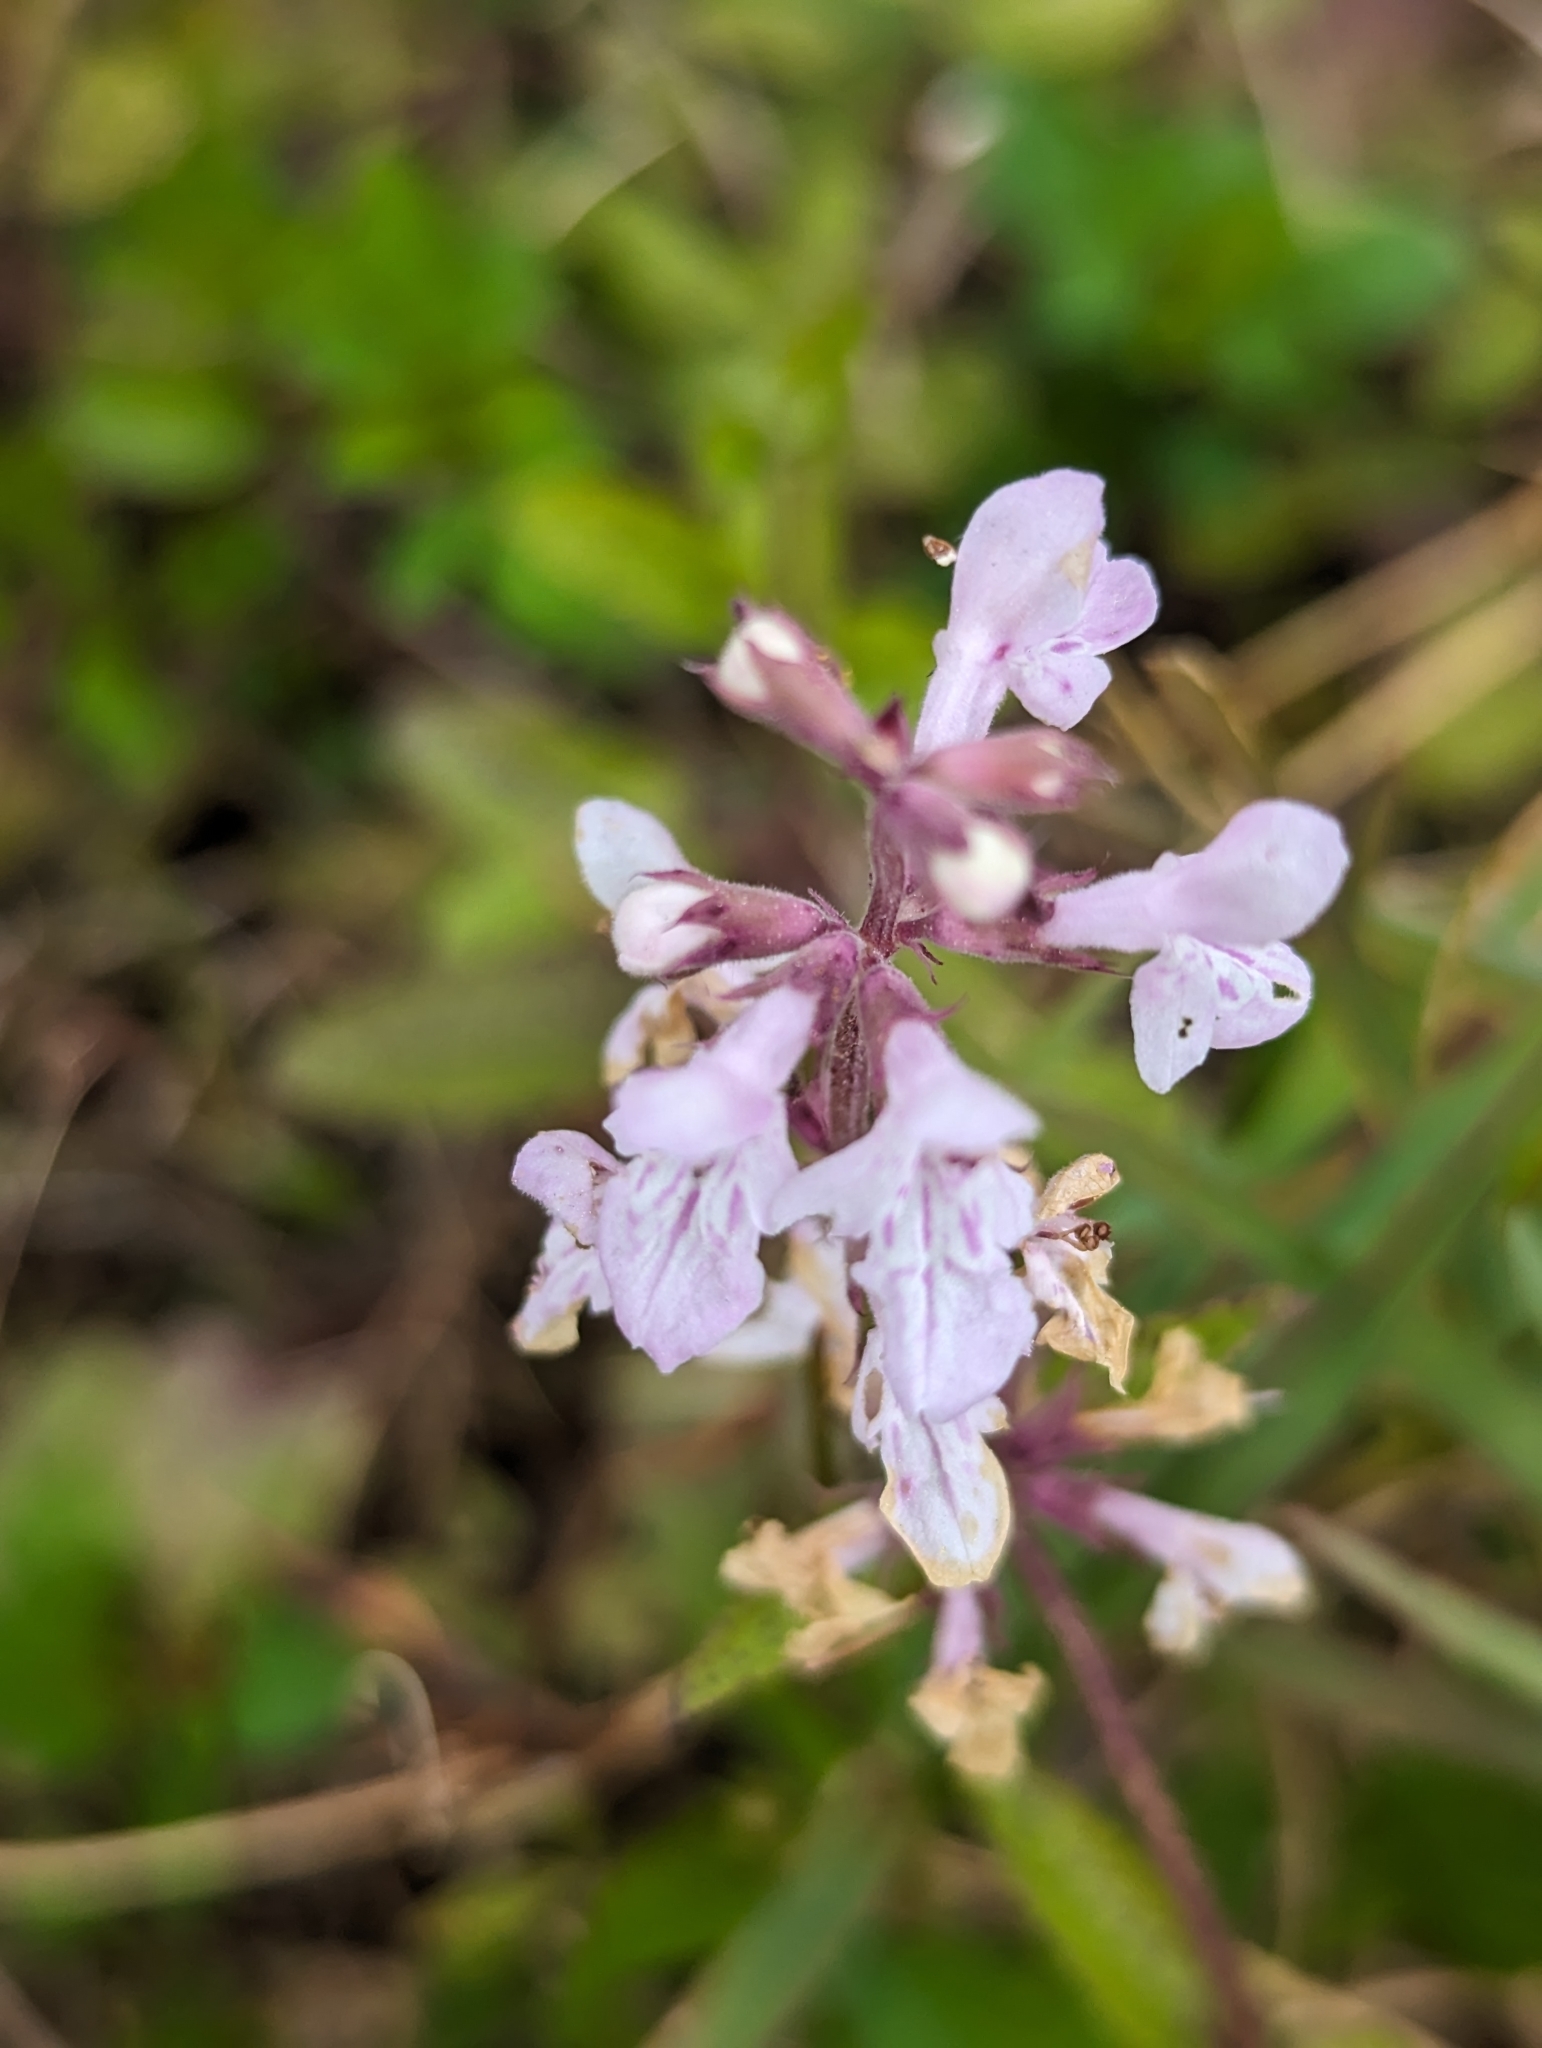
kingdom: Plantae
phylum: Tracheophyta
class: Magnoliopsida
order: Lamiales
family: Lamiaceae
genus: Stachys
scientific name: Stachys floridana
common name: Florida betony
